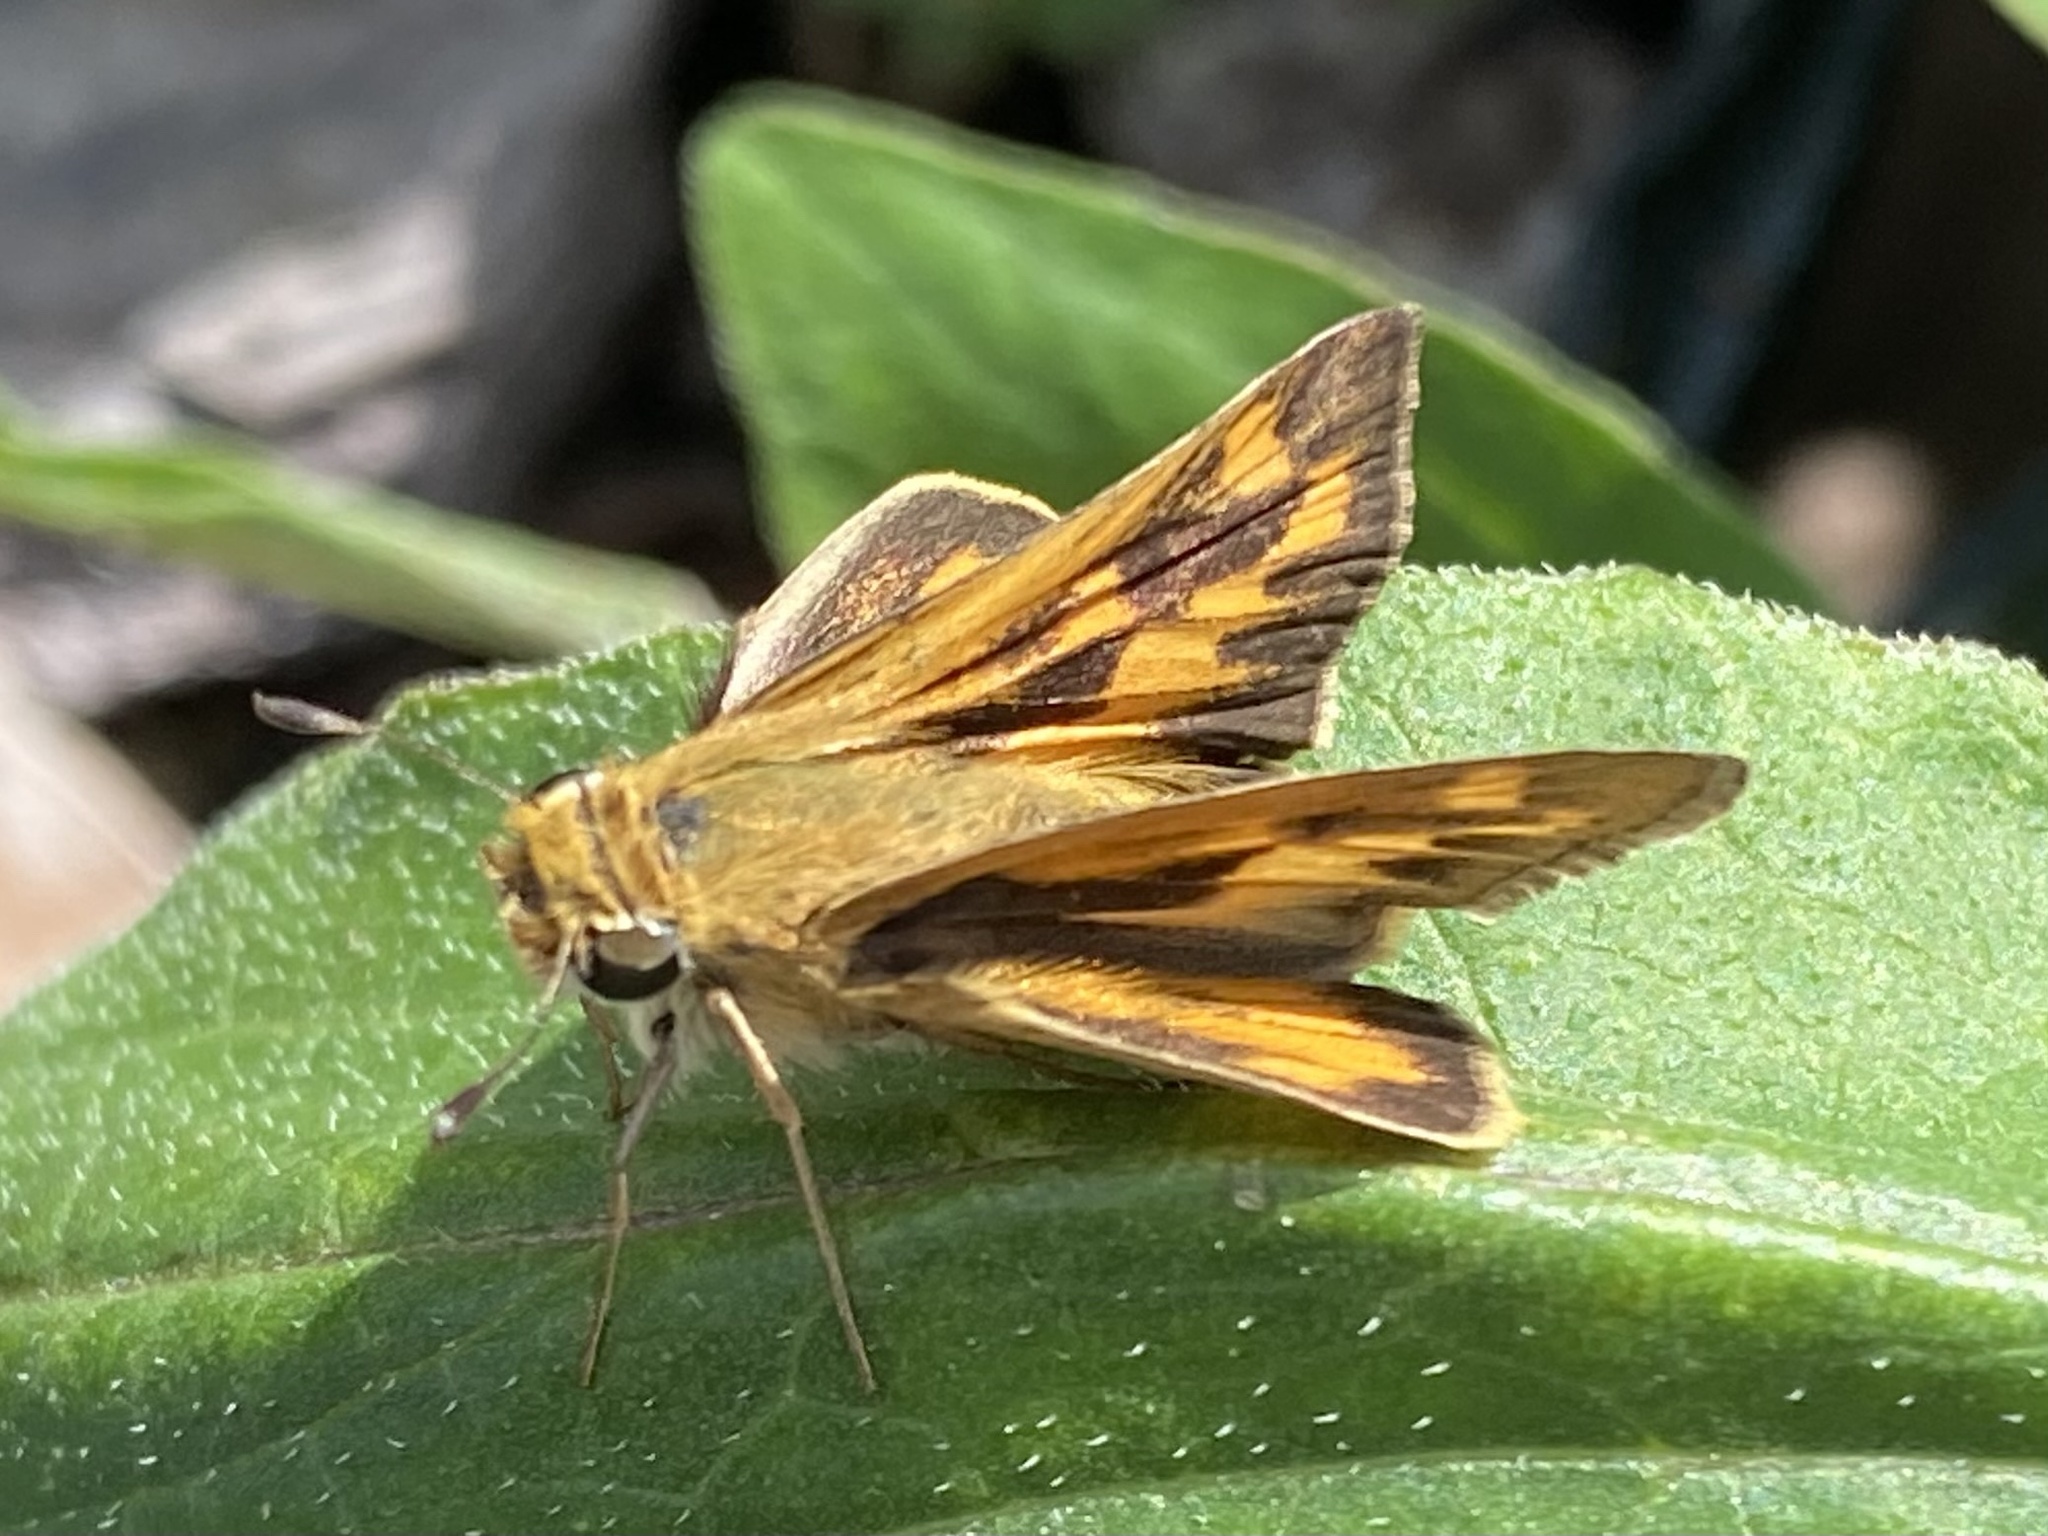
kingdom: Animalia
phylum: Arthropoda
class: Insecta
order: Lepidoptera
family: Hesperiidae
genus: Hylephila
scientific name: Hylephila phyleus
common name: Fiery skipper
